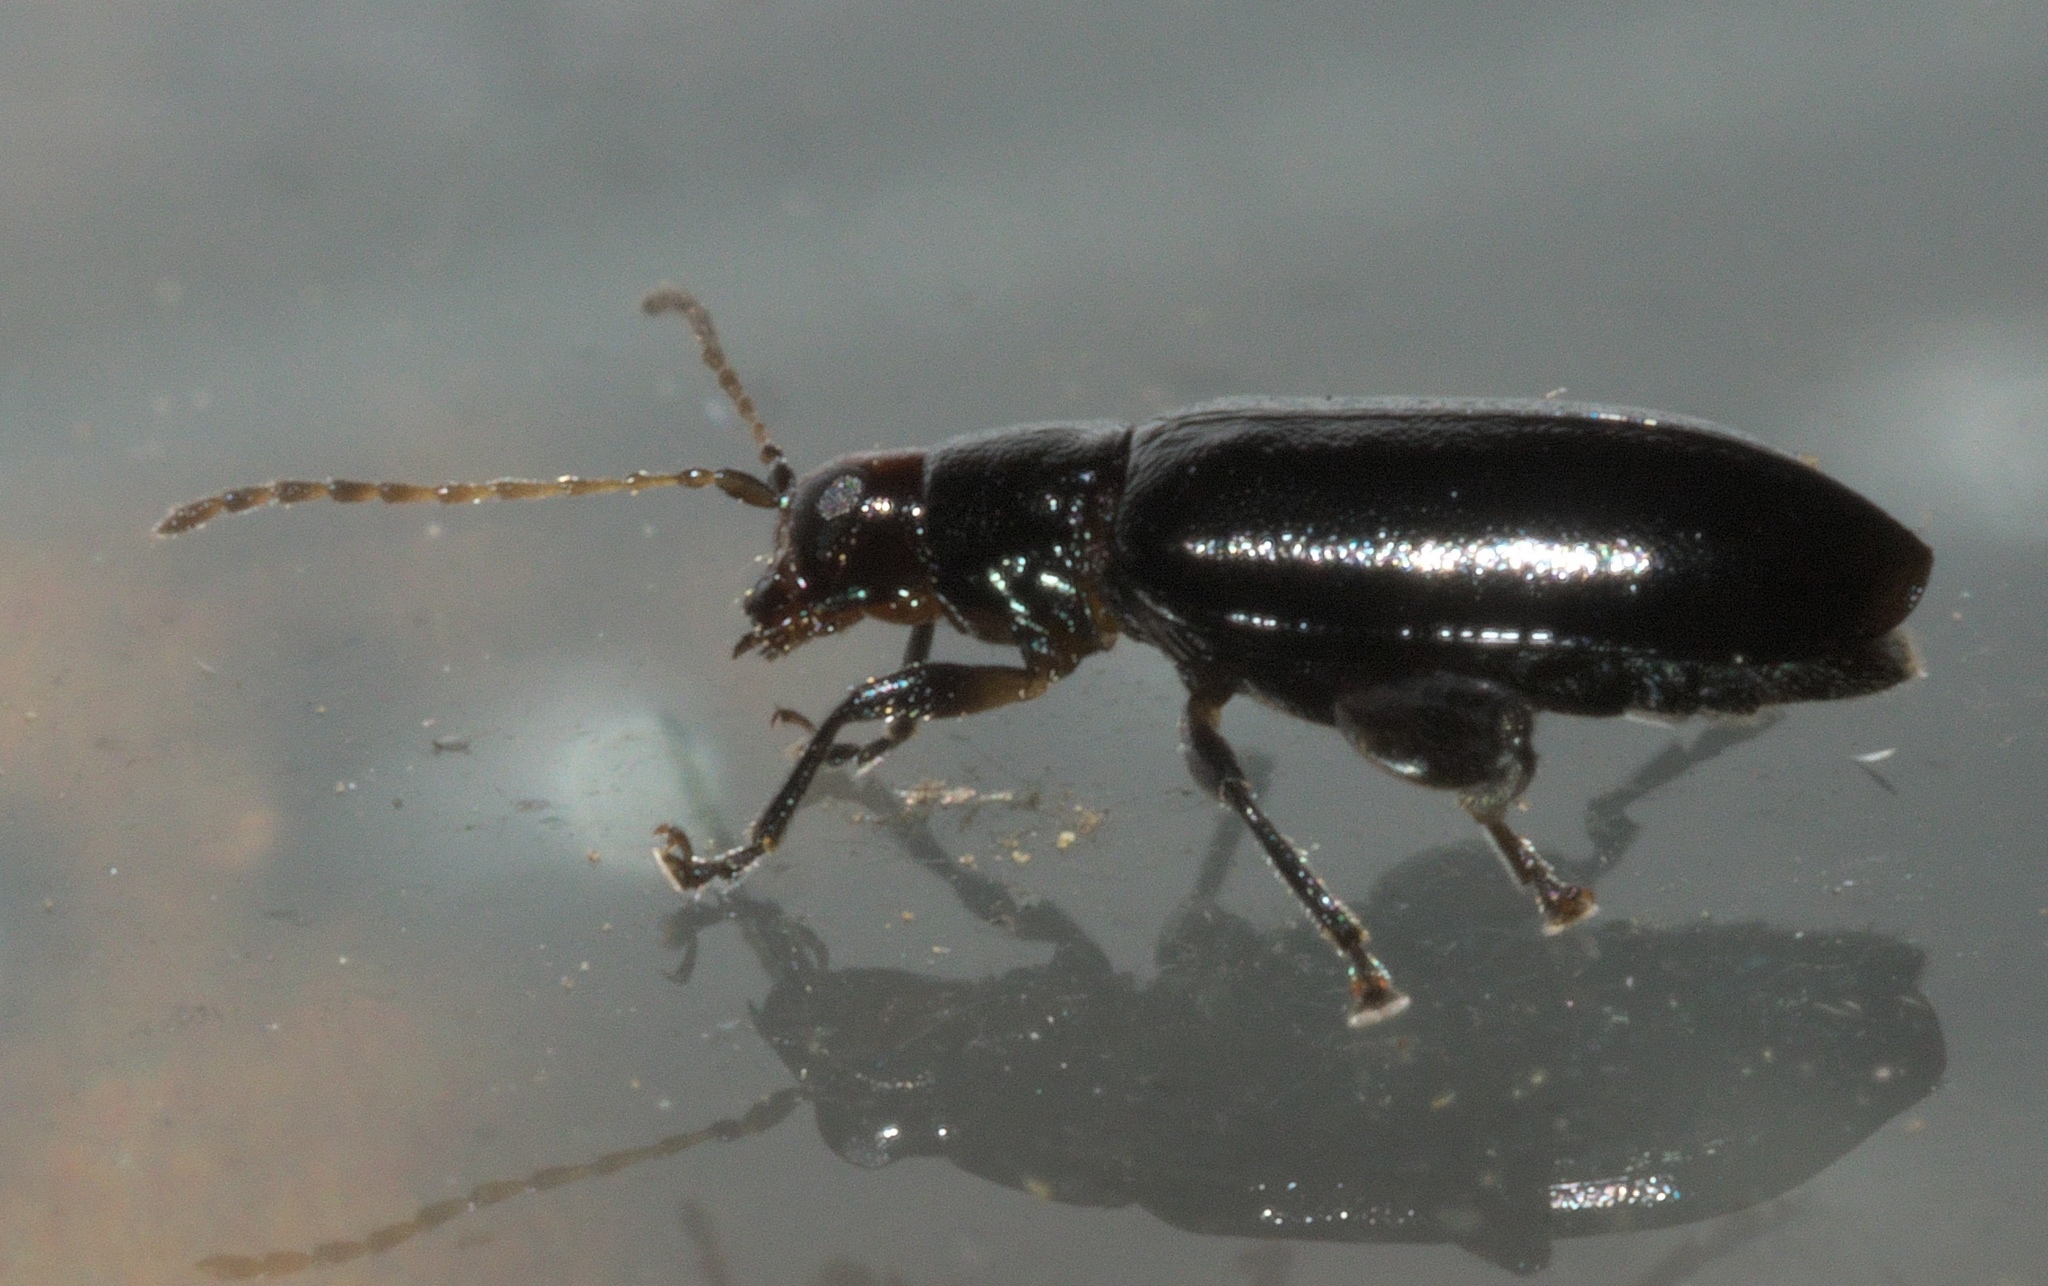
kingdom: Animalia
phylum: Arthropoda
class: Insecta
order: Coleoptera
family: Chrysomelidae
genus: Systena
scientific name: Systena frontalis
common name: Red-headed flea beetle
